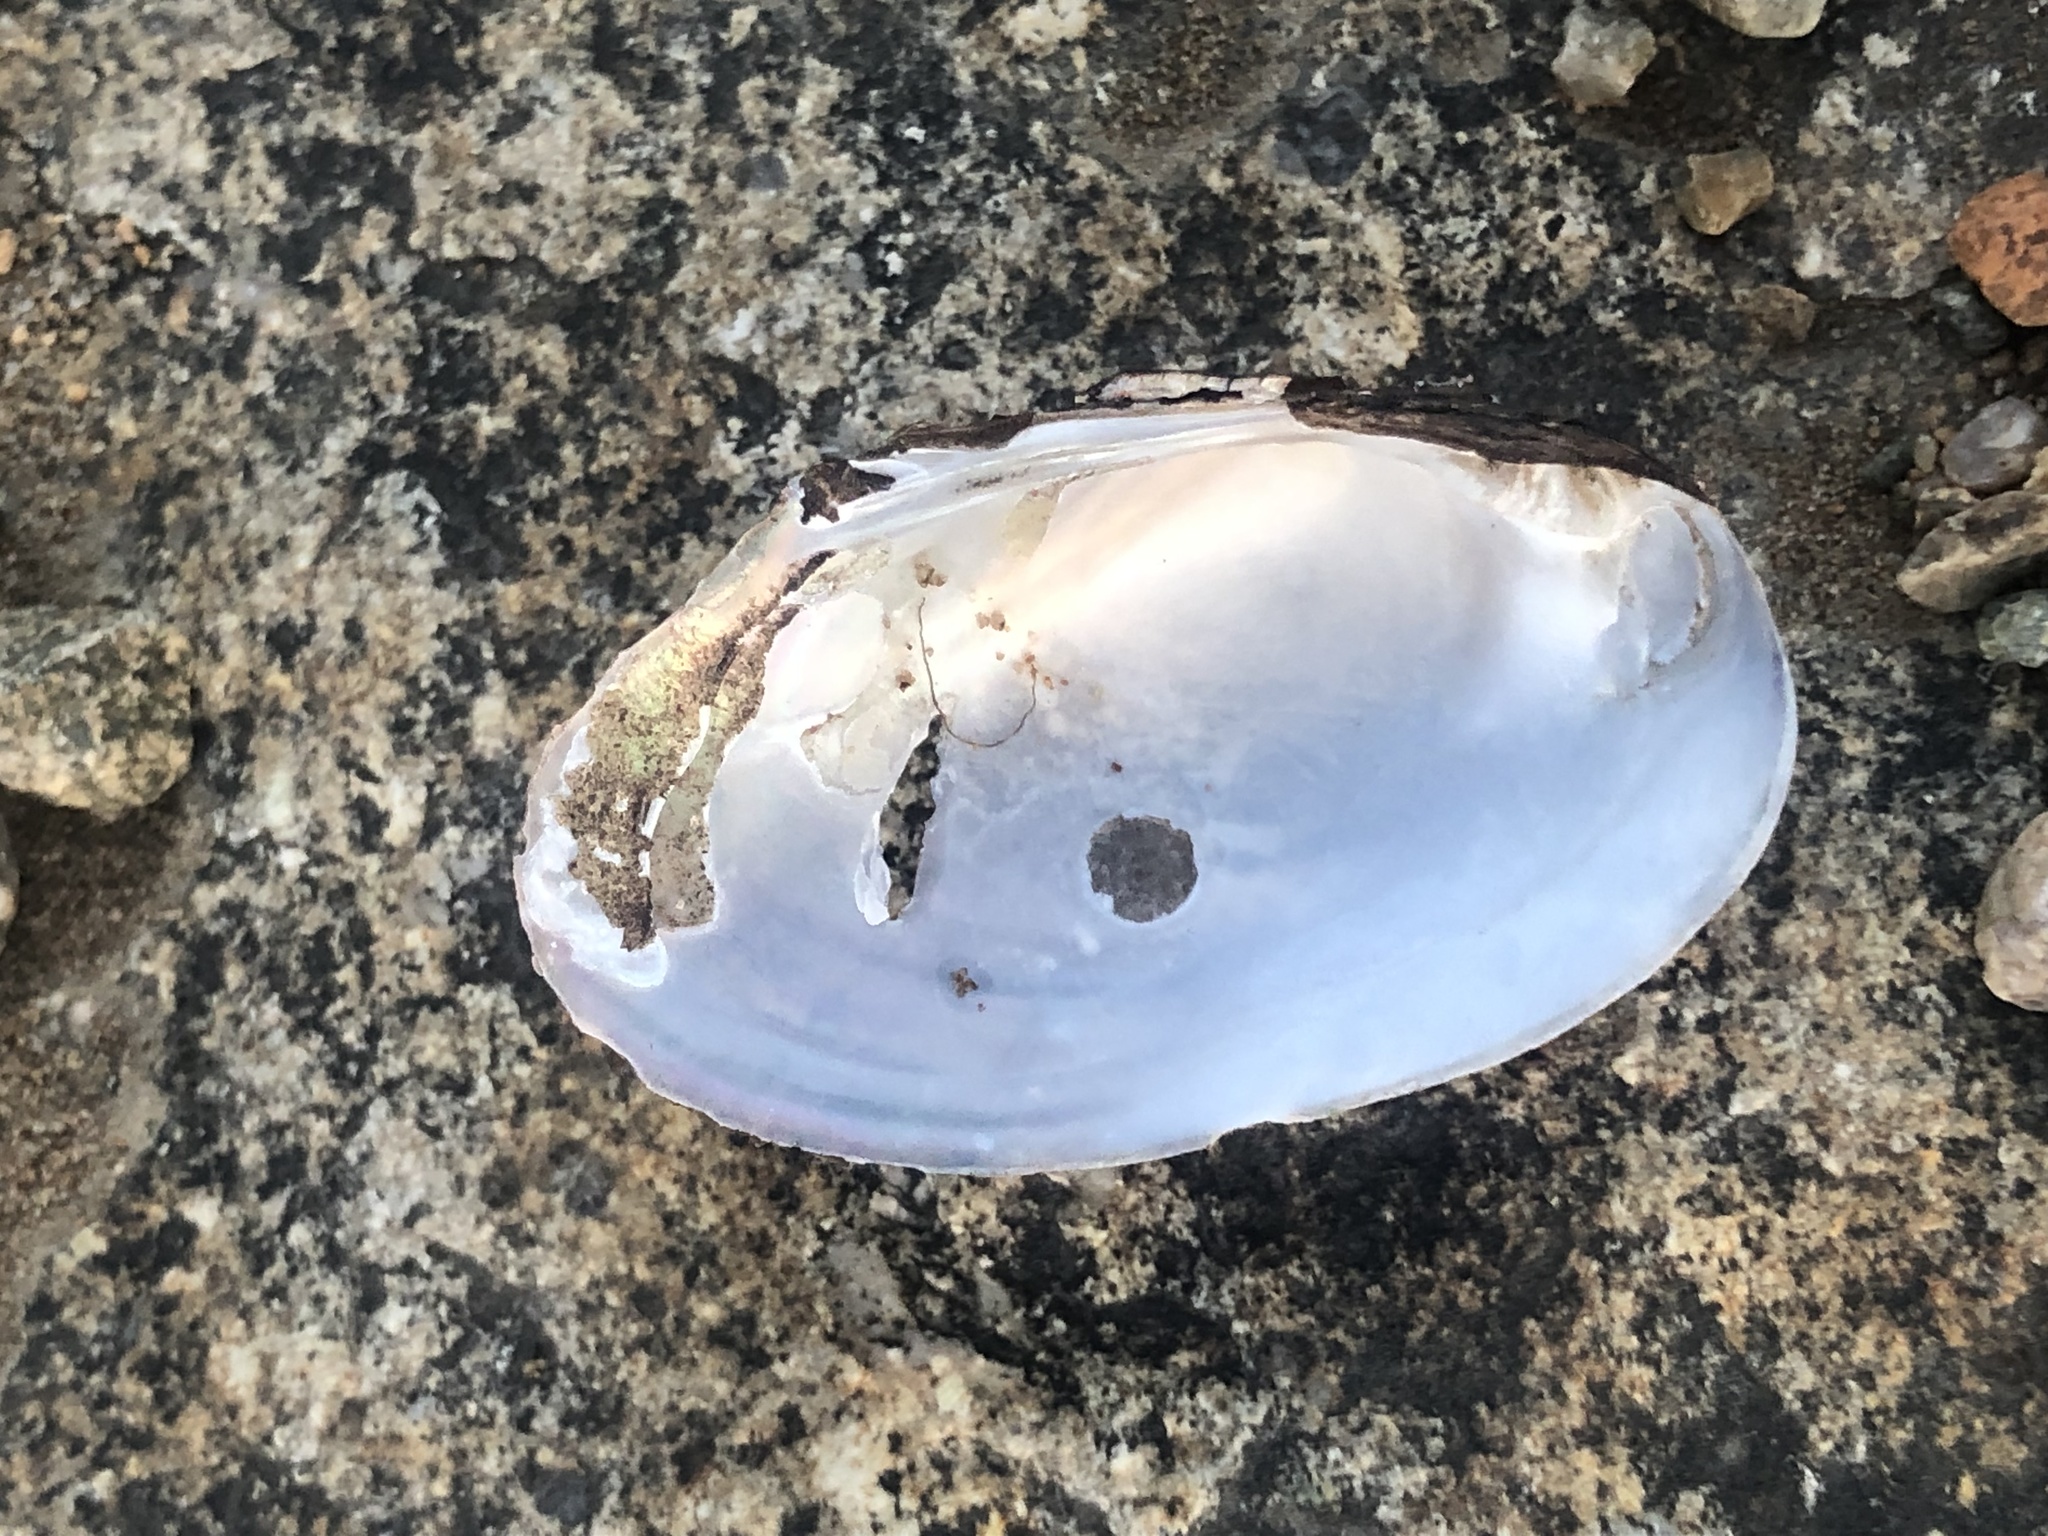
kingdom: Animalia
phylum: Mollusca
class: Bivalvia
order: Unionida
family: Unionidae
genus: Lampsilis
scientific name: Lampsilis radiata
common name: Eastern lampmussel
